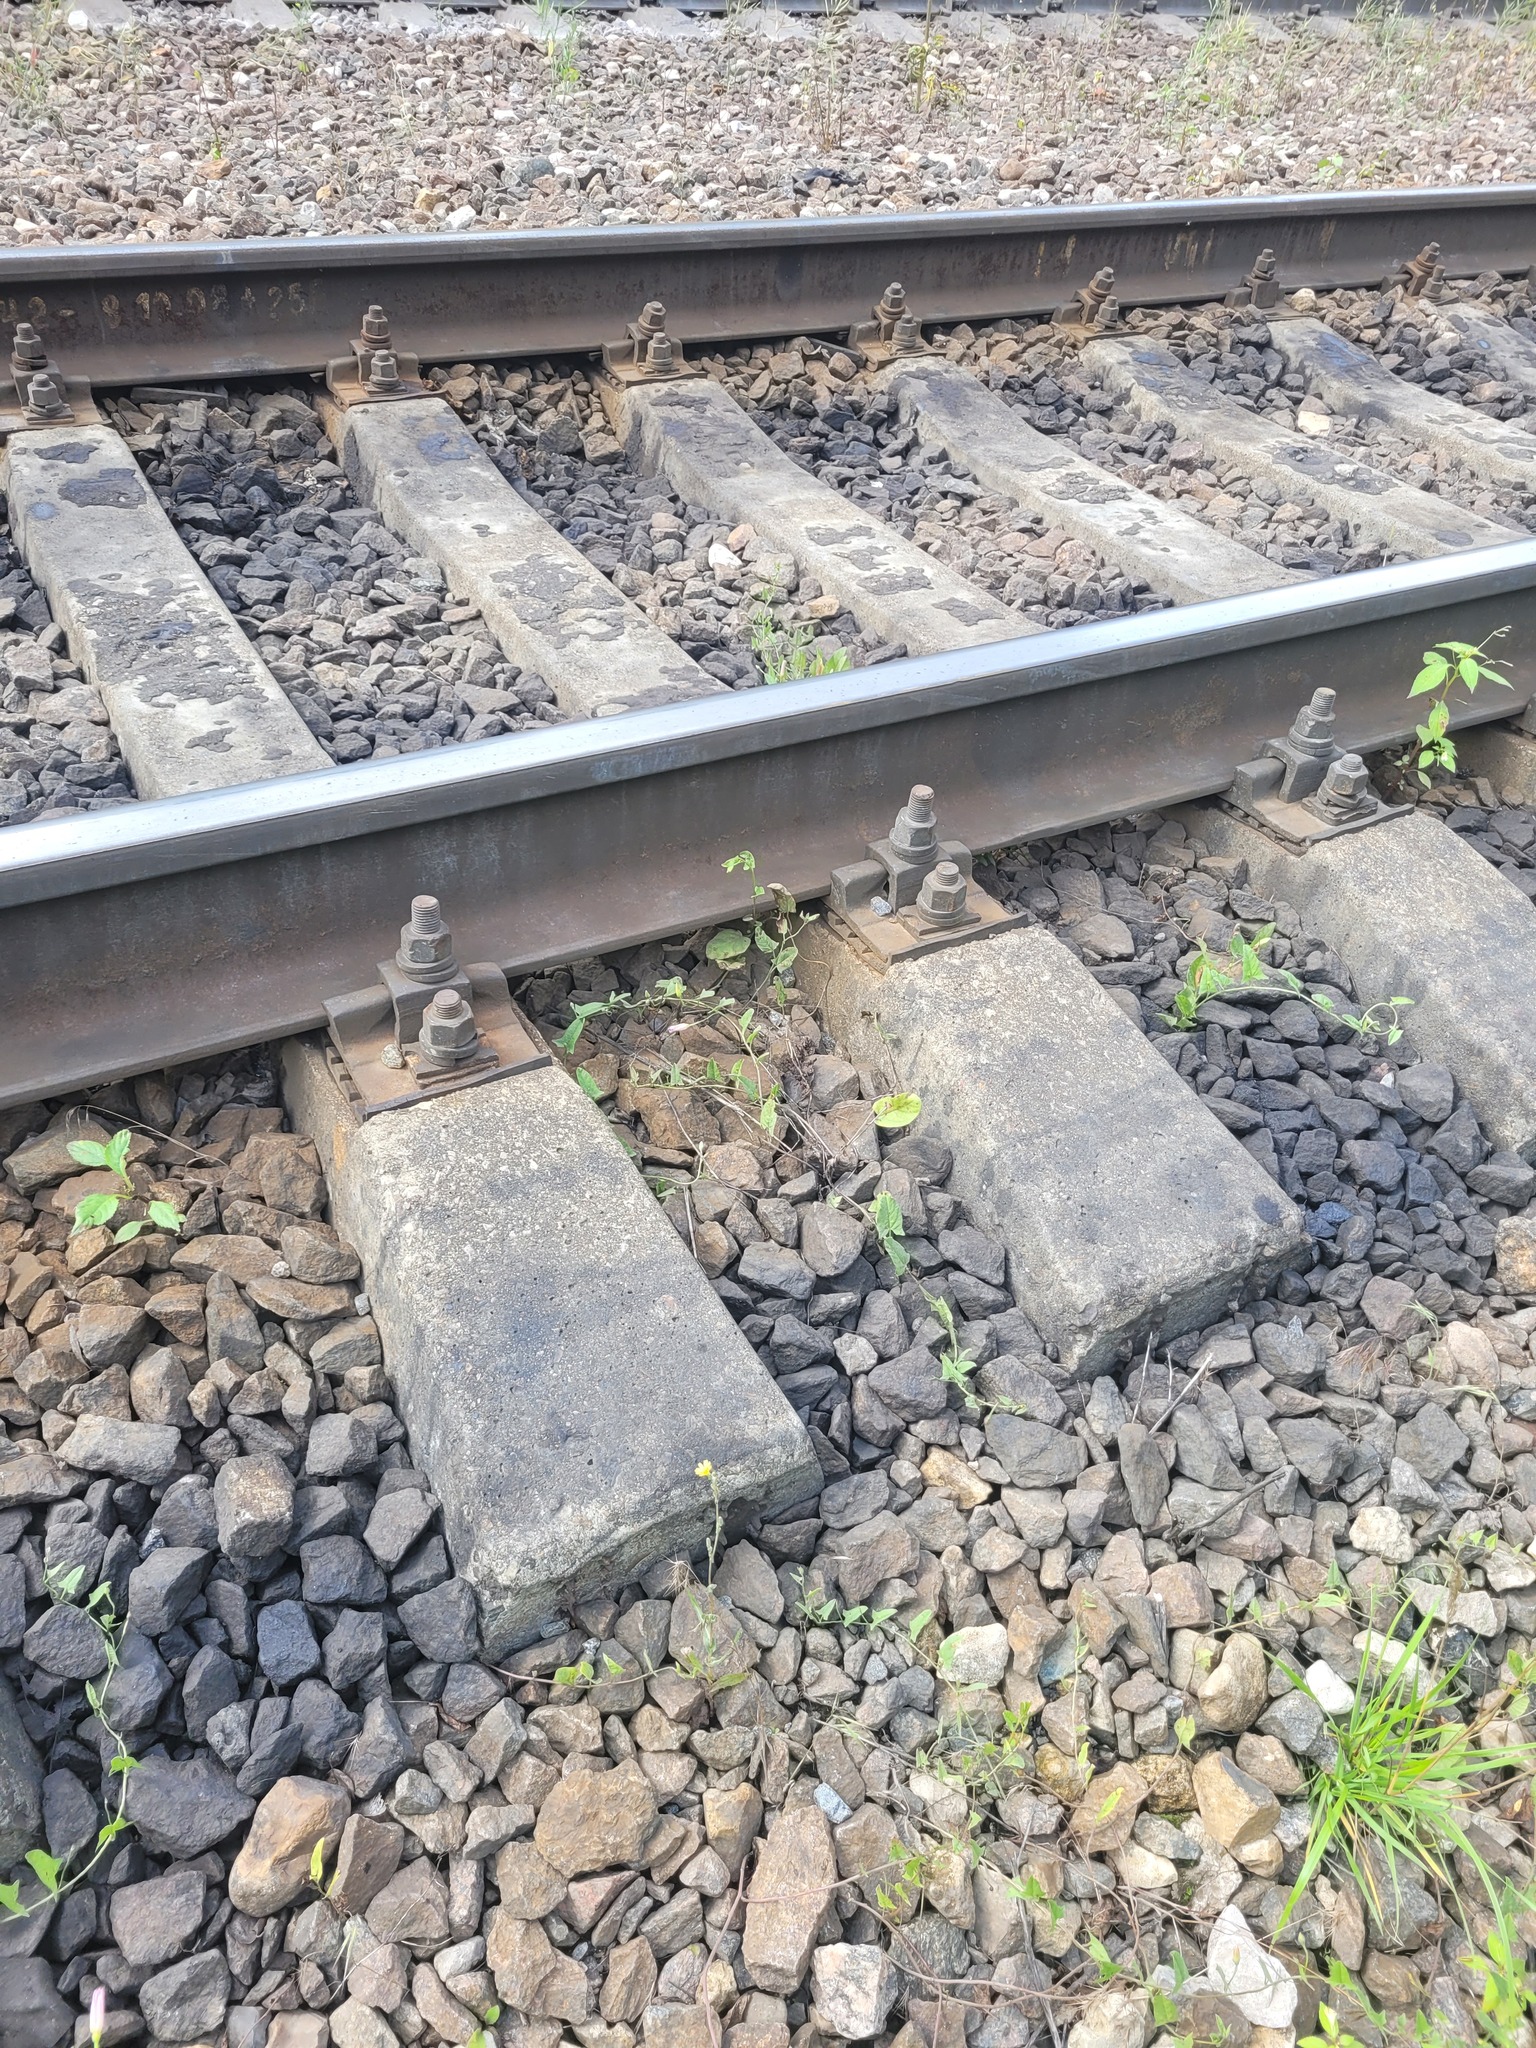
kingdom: Plantae
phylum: Tracheophyta
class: Magnoliopsida
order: Solanales
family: Convolvulaceae
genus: Convolvulus
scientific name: Convolvulus arvensis
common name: Field bindweed
